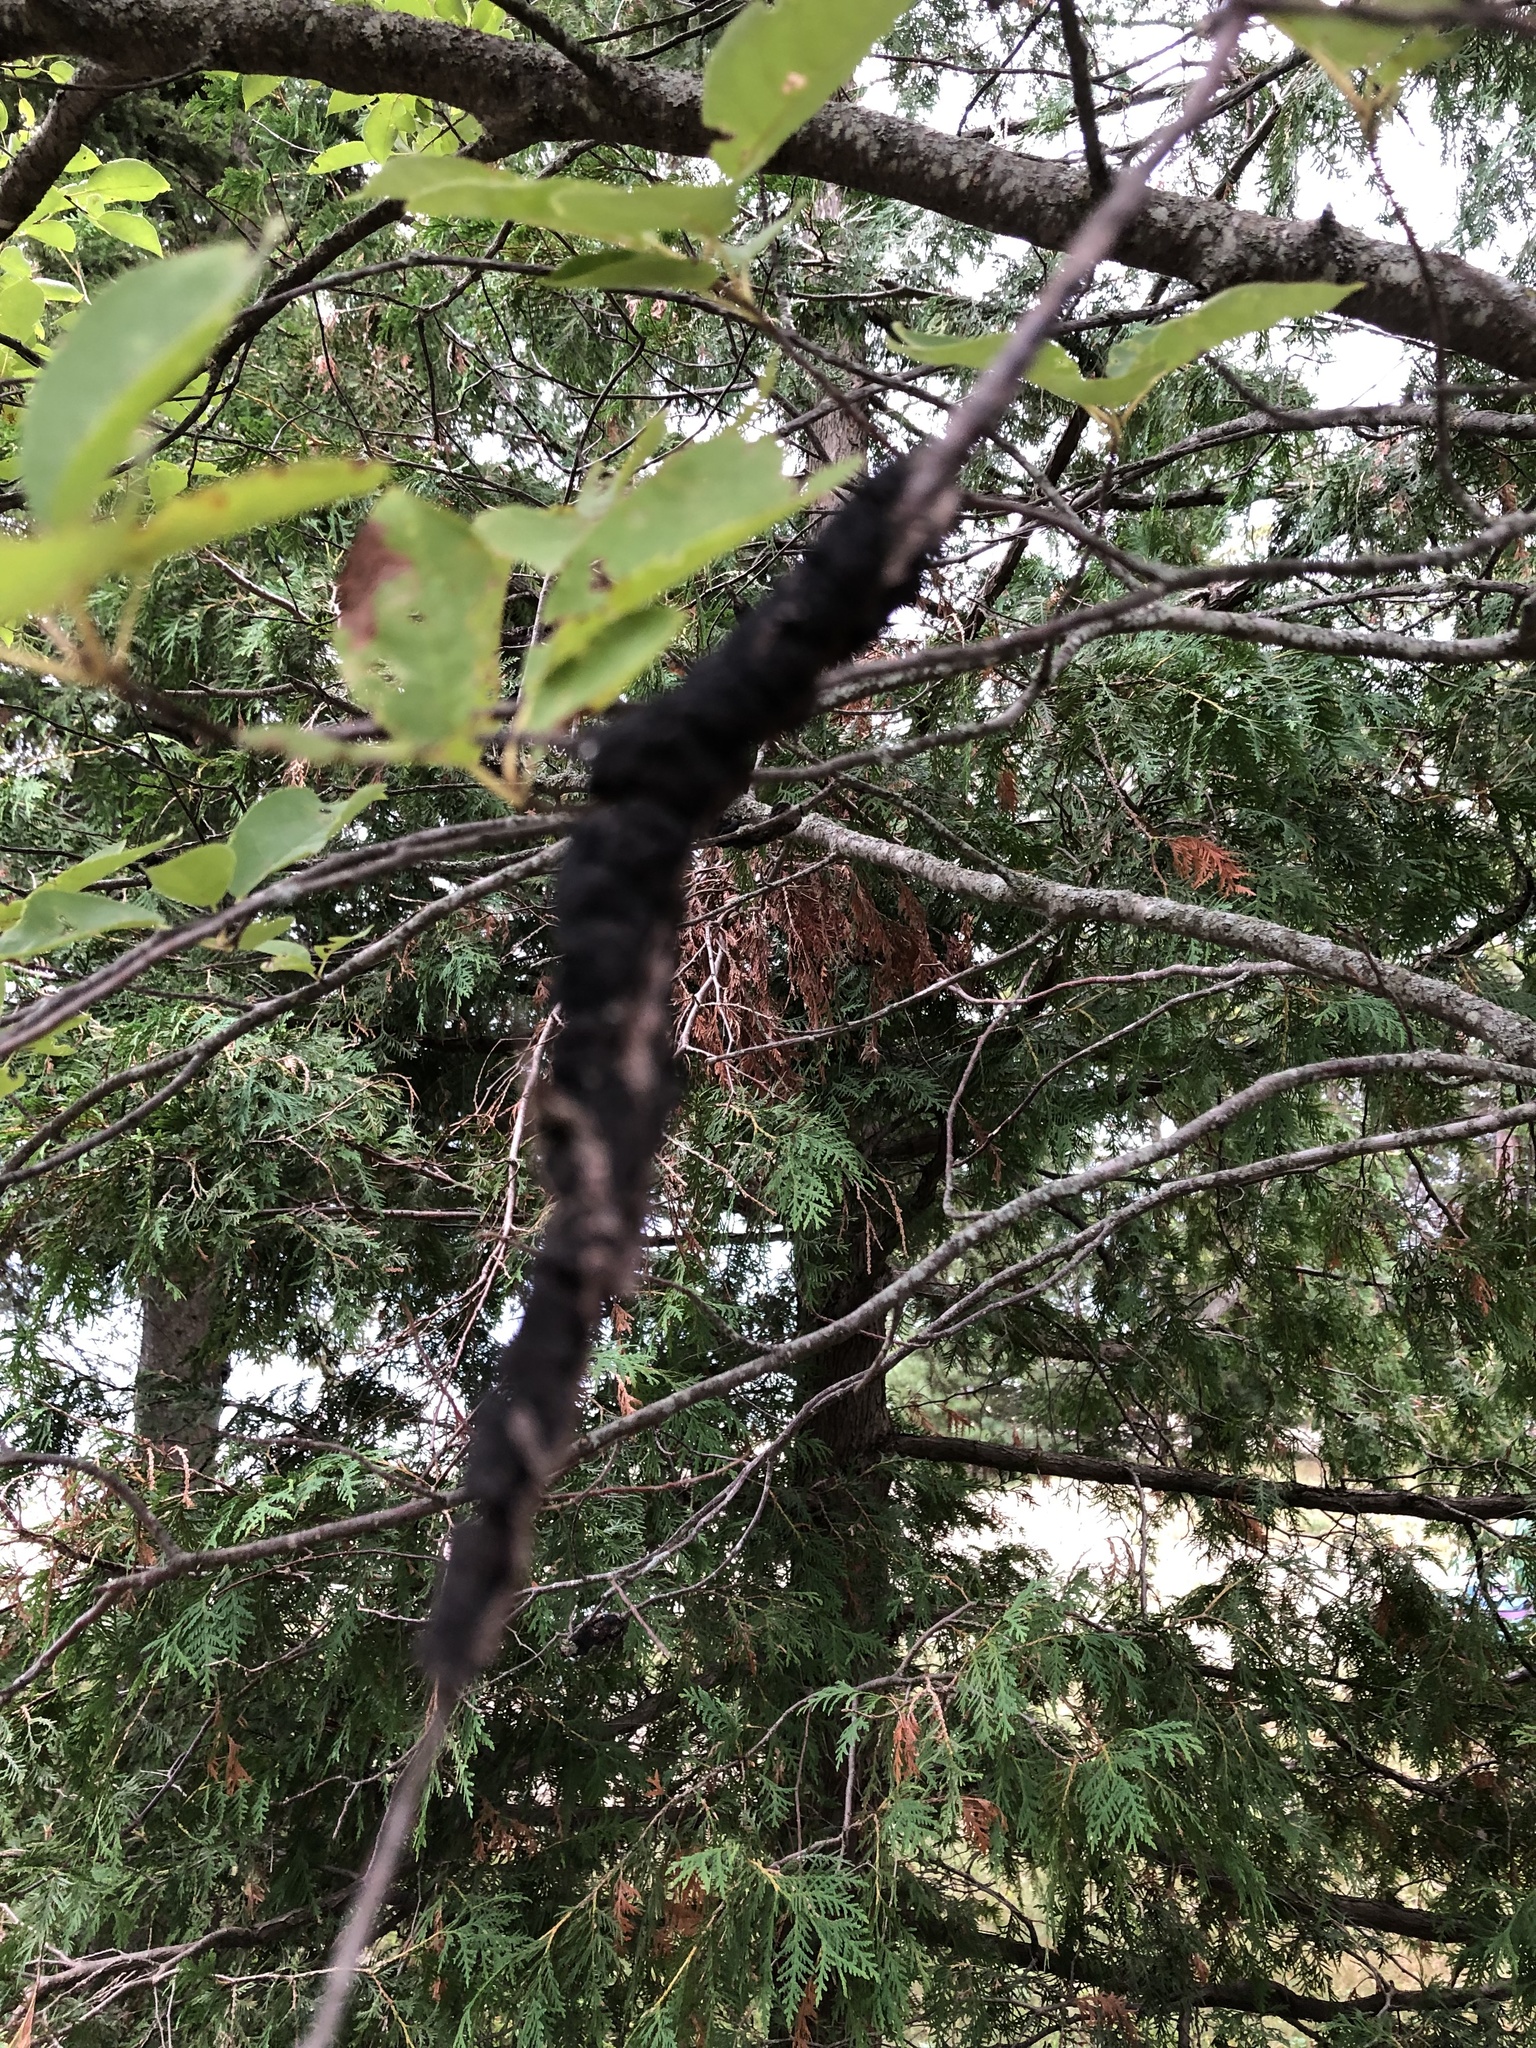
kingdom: Fungi
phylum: Ascomycota
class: Dothideomycetes
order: Venturiales
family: Venturiaceae
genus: Apiosporina
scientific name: Apiosporina morbosa
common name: Black knot
